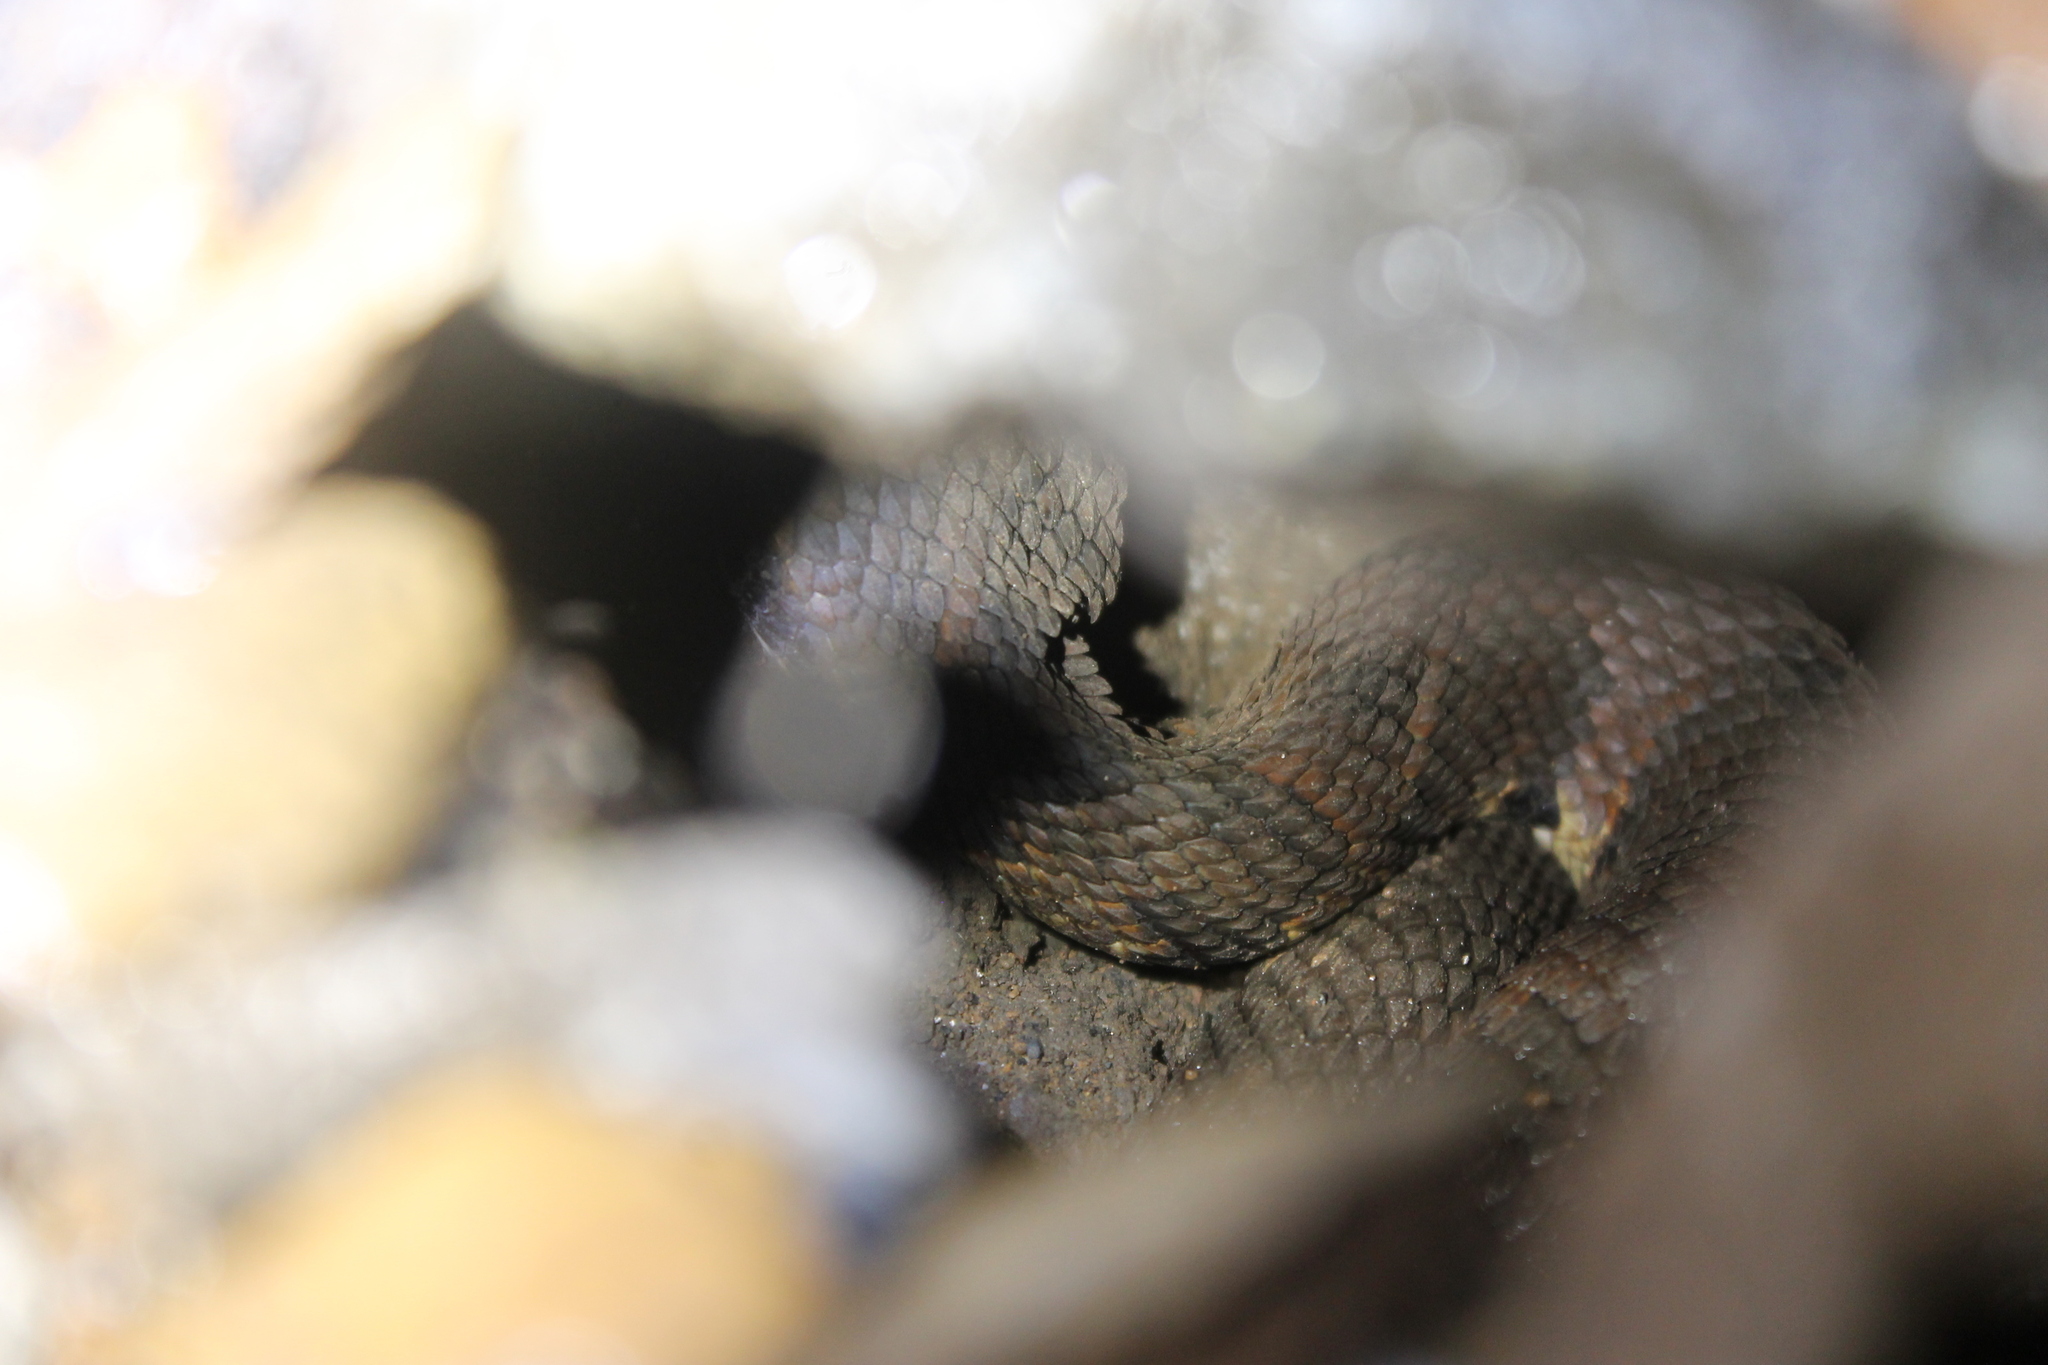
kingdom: Animalia
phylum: Chordata
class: Squamata
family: Viperidae
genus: Agkistrodon
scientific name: Agkistrodon piscivorus
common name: Cottonmouth
